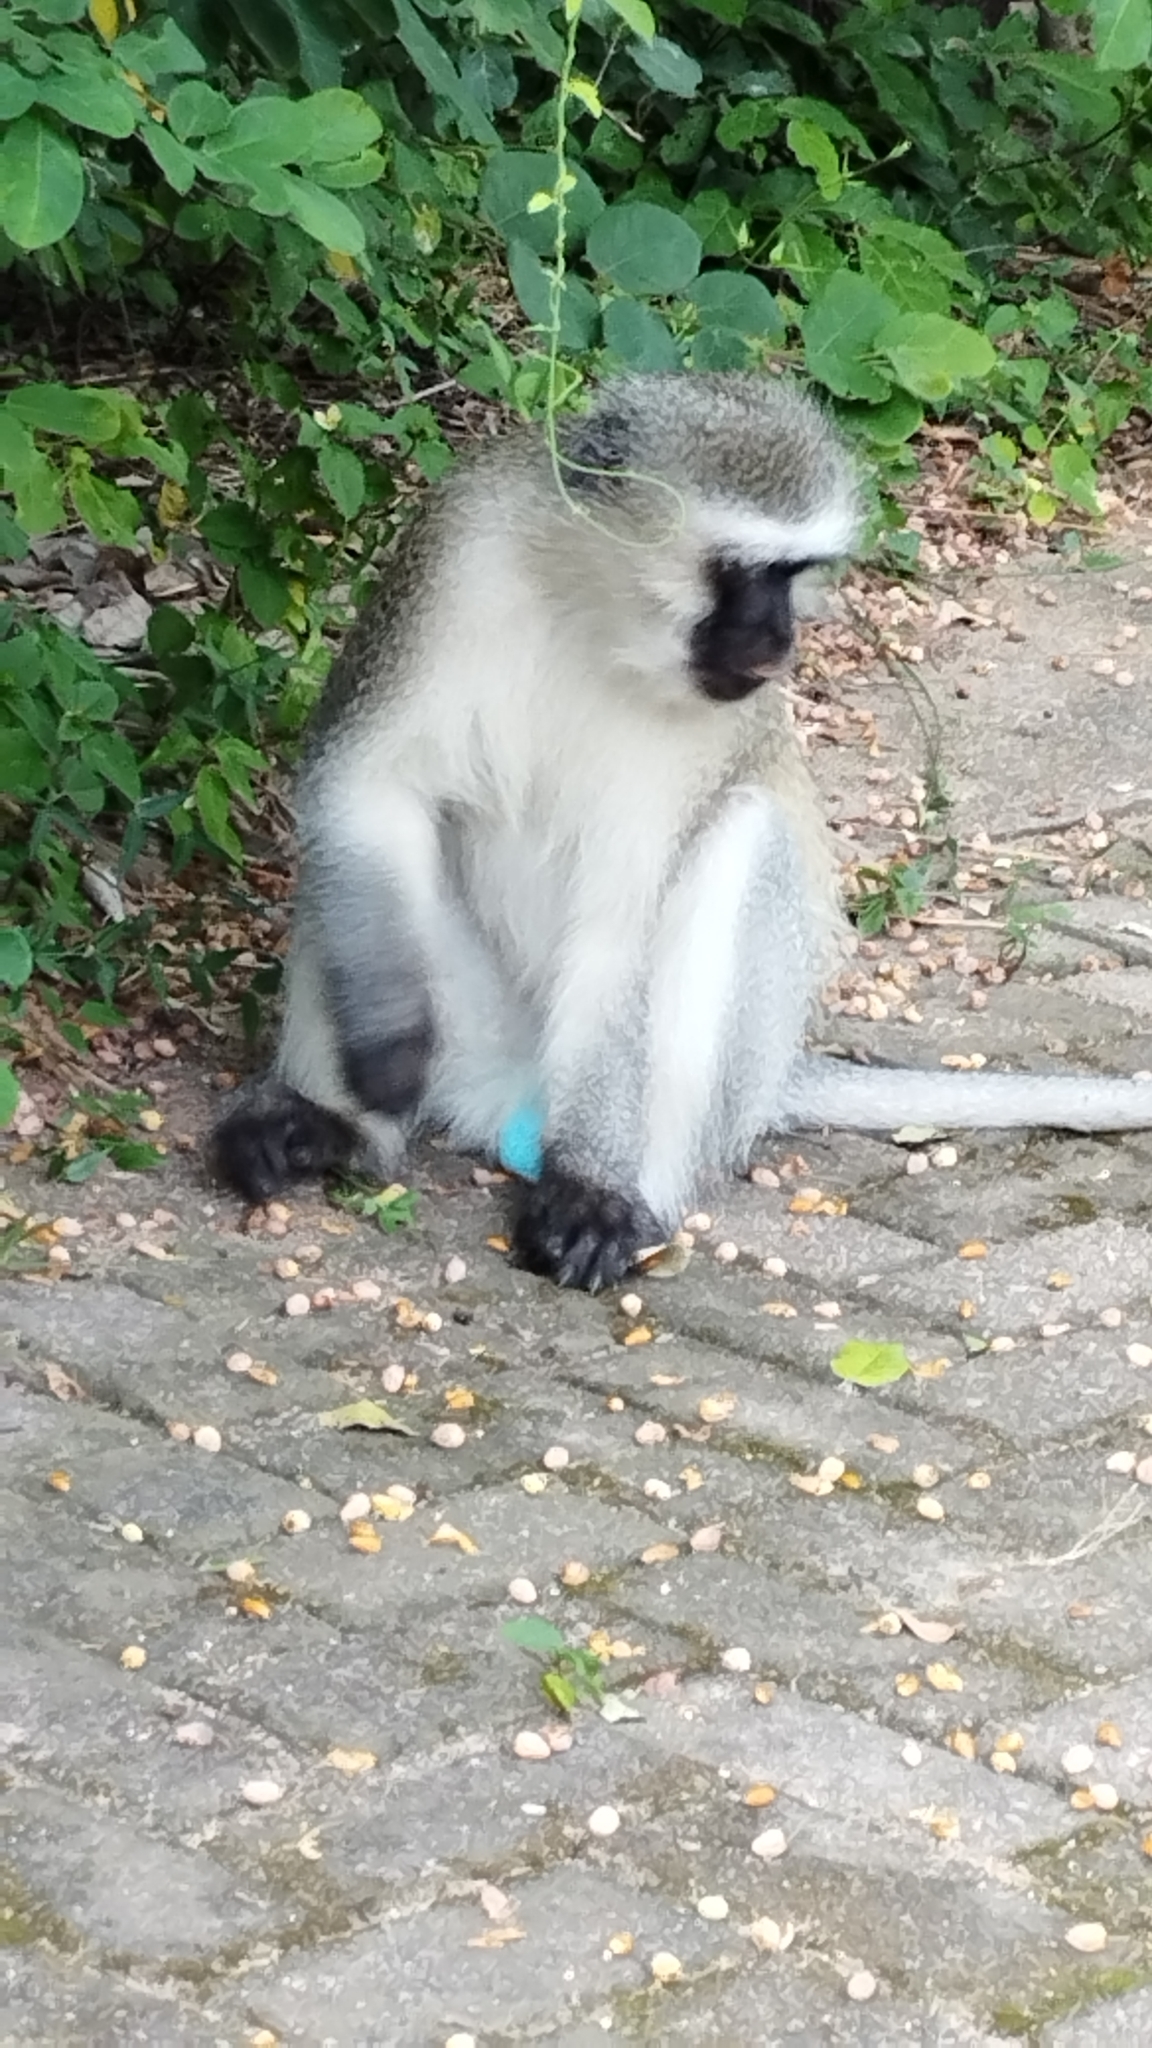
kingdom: Animalia
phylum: Chordata
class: Mammalia
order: Primates
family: Cercopithecidae
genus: Chlorocebus
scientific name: Chlorocebus pygerythrus
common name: Vervet monkey
